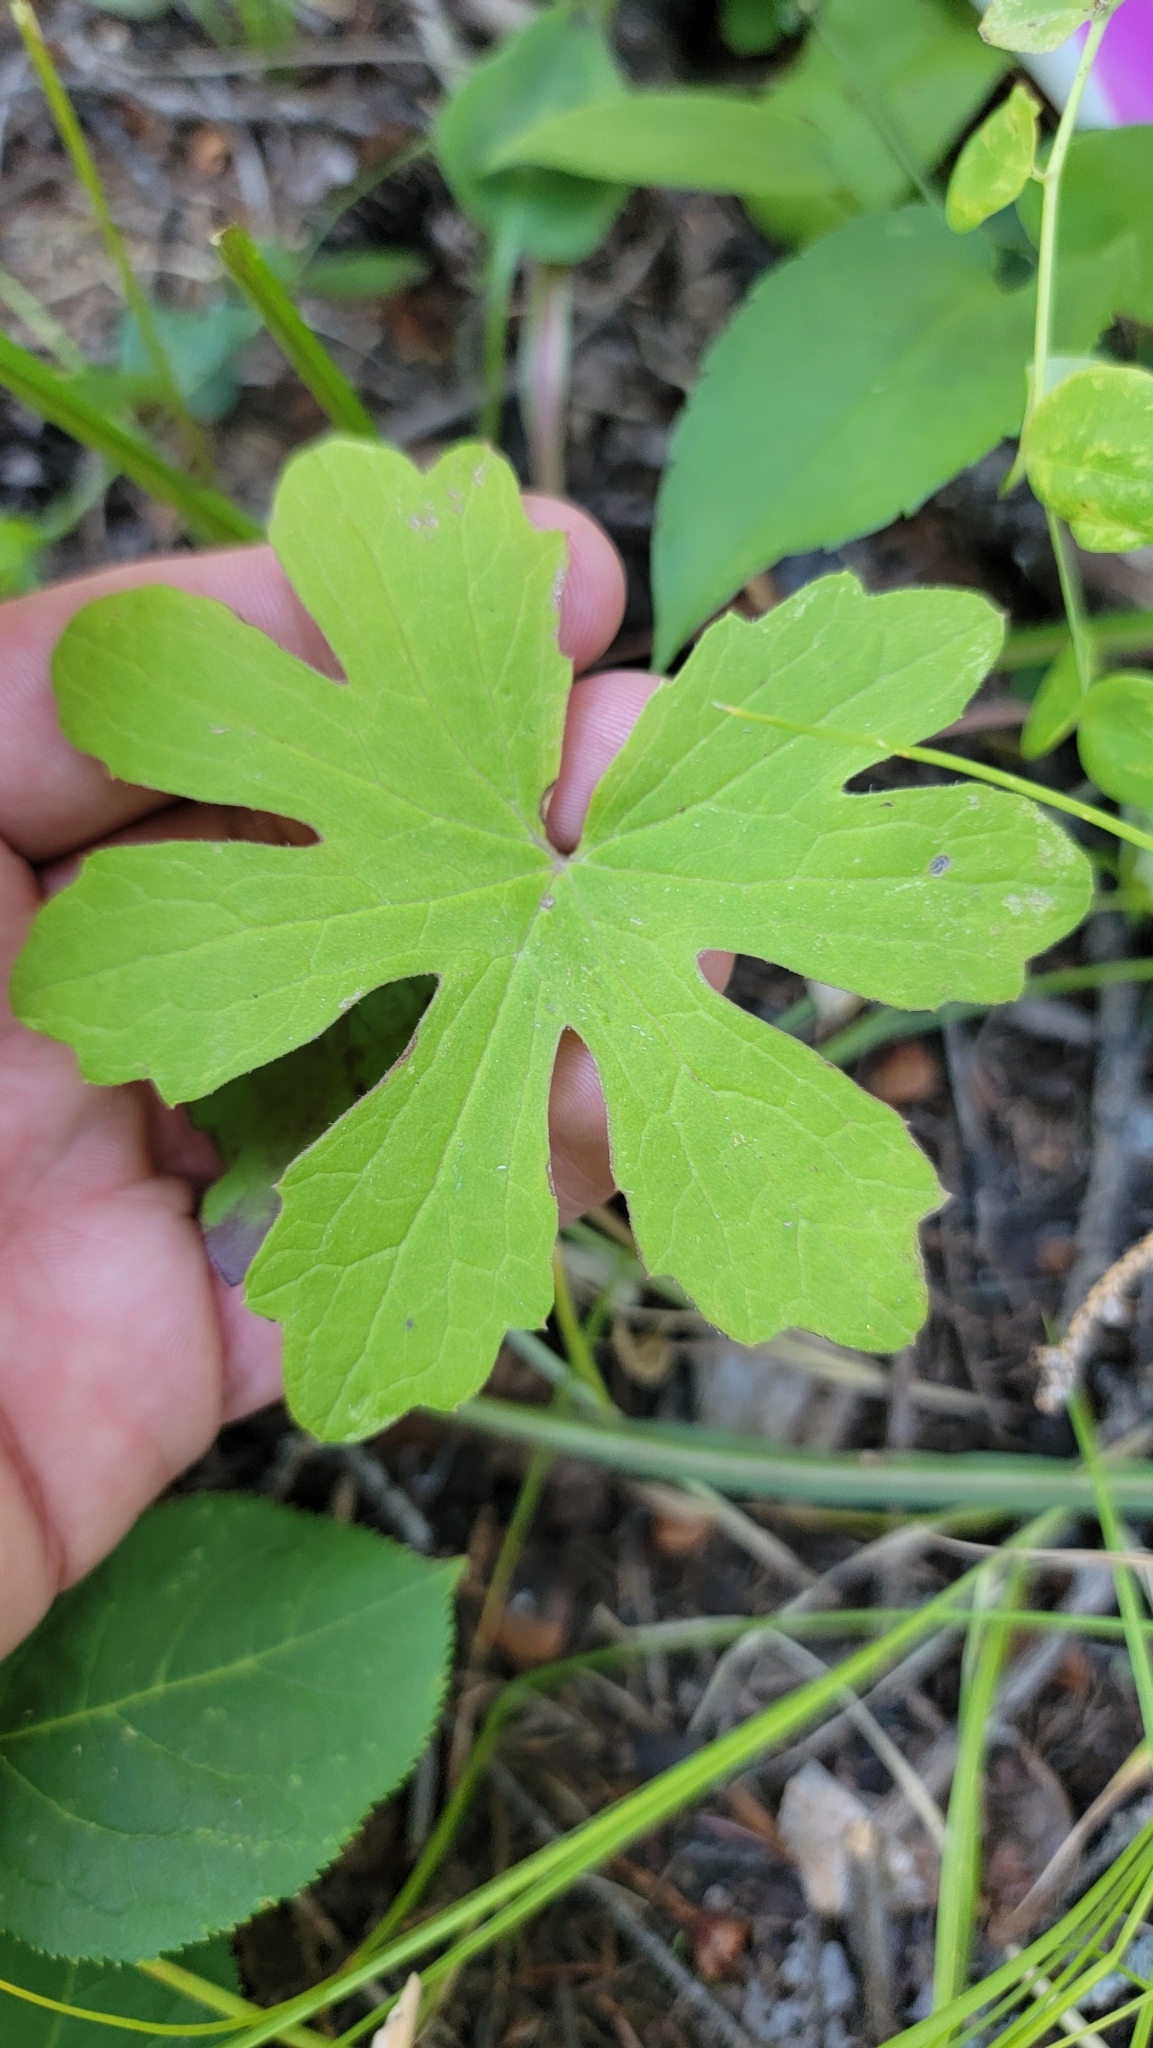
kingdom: Plantae
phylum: Tracheophyta
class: Magnoliopsida
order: Asterales
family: Asteraceae
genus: Petasites
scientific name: Petasites frigidus
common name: Arctic butterbur
